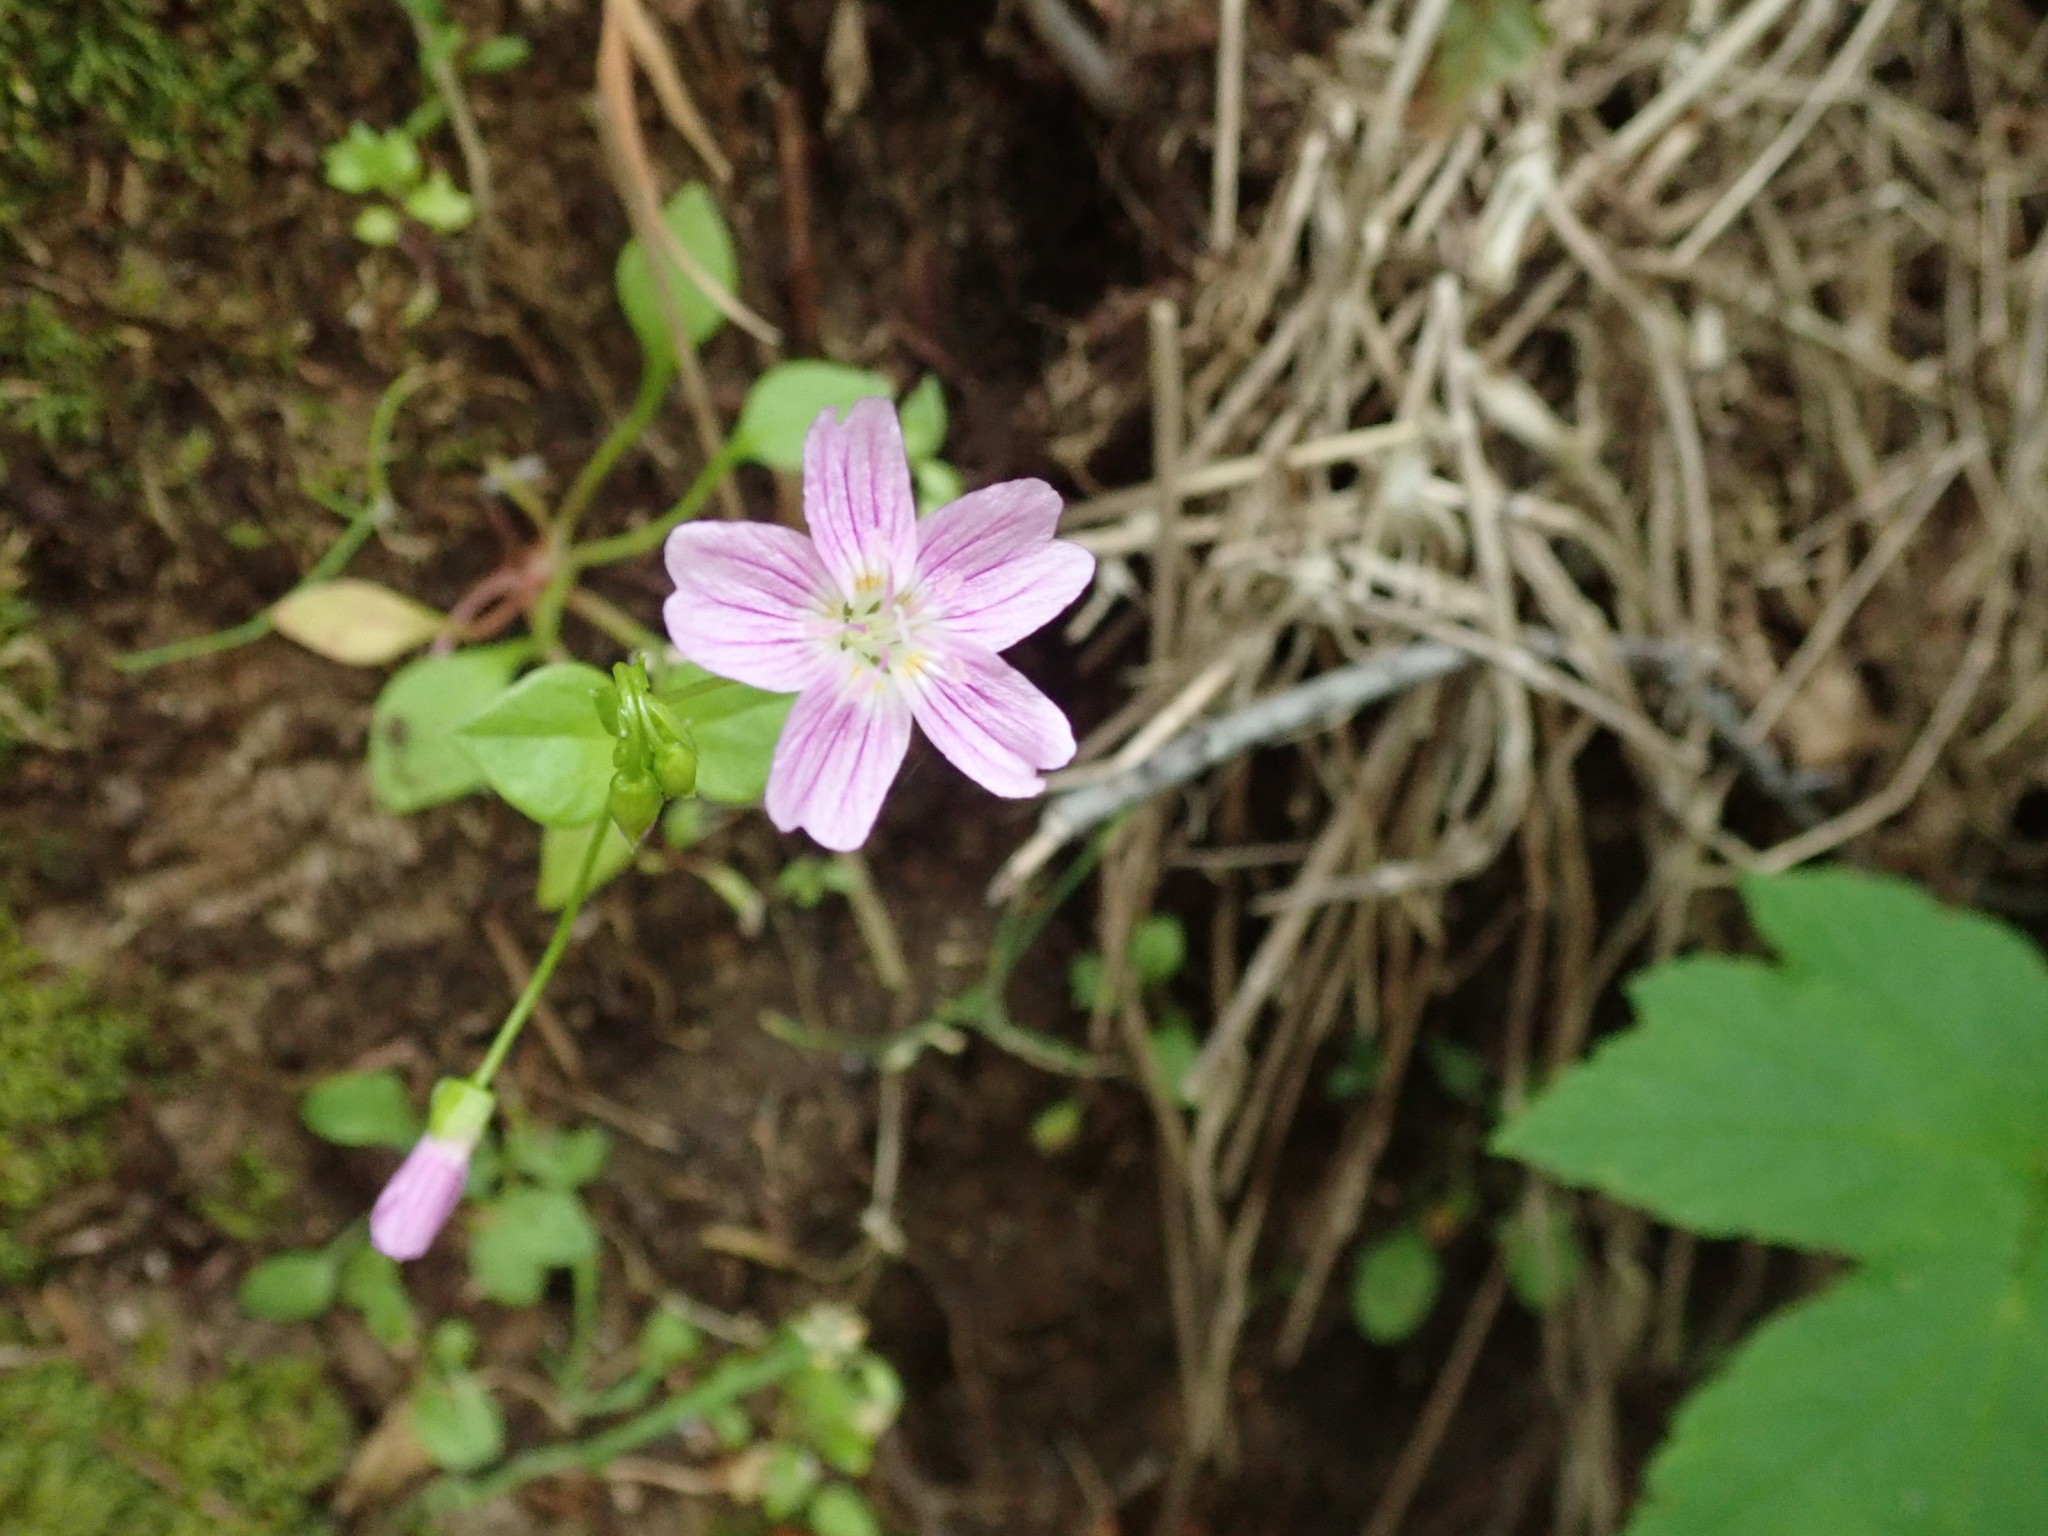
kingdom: Plantae
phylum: Tracheophyta
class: Magnoliopsida
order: Caryophyllales
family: Montiaceae
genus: Claytonia
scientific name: Claytonia sibirica
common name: Pink purslane
